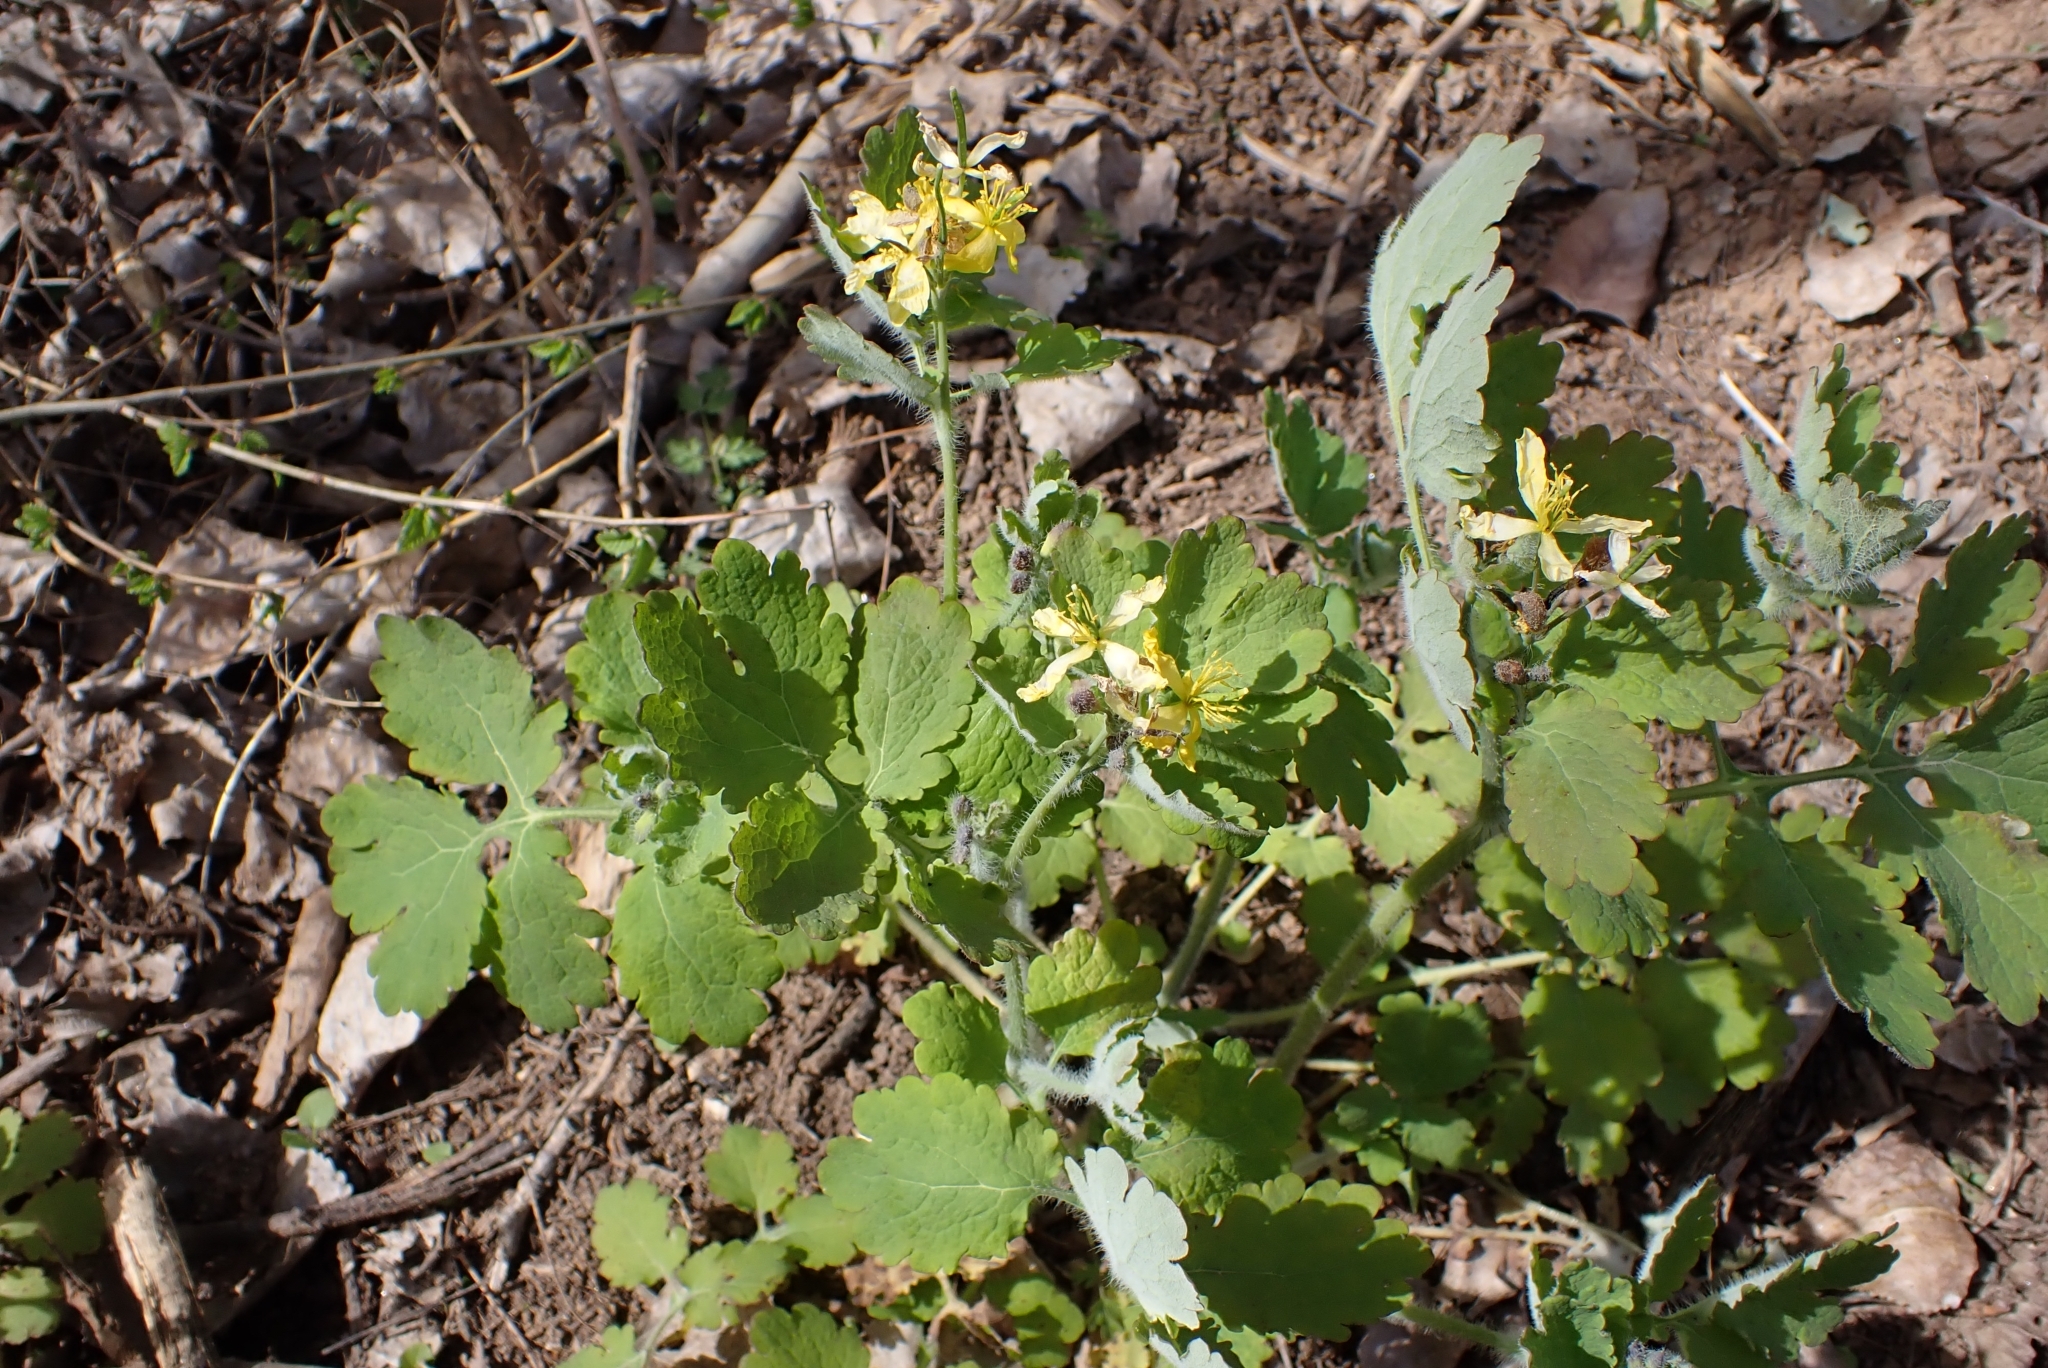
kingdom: Plantae
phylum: Tracheophyta
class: Magnoliopsida
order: Ranunculales
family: Papaveraceae
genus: Chelidonium
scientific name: Chelidonium majus
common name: Greater celandine
